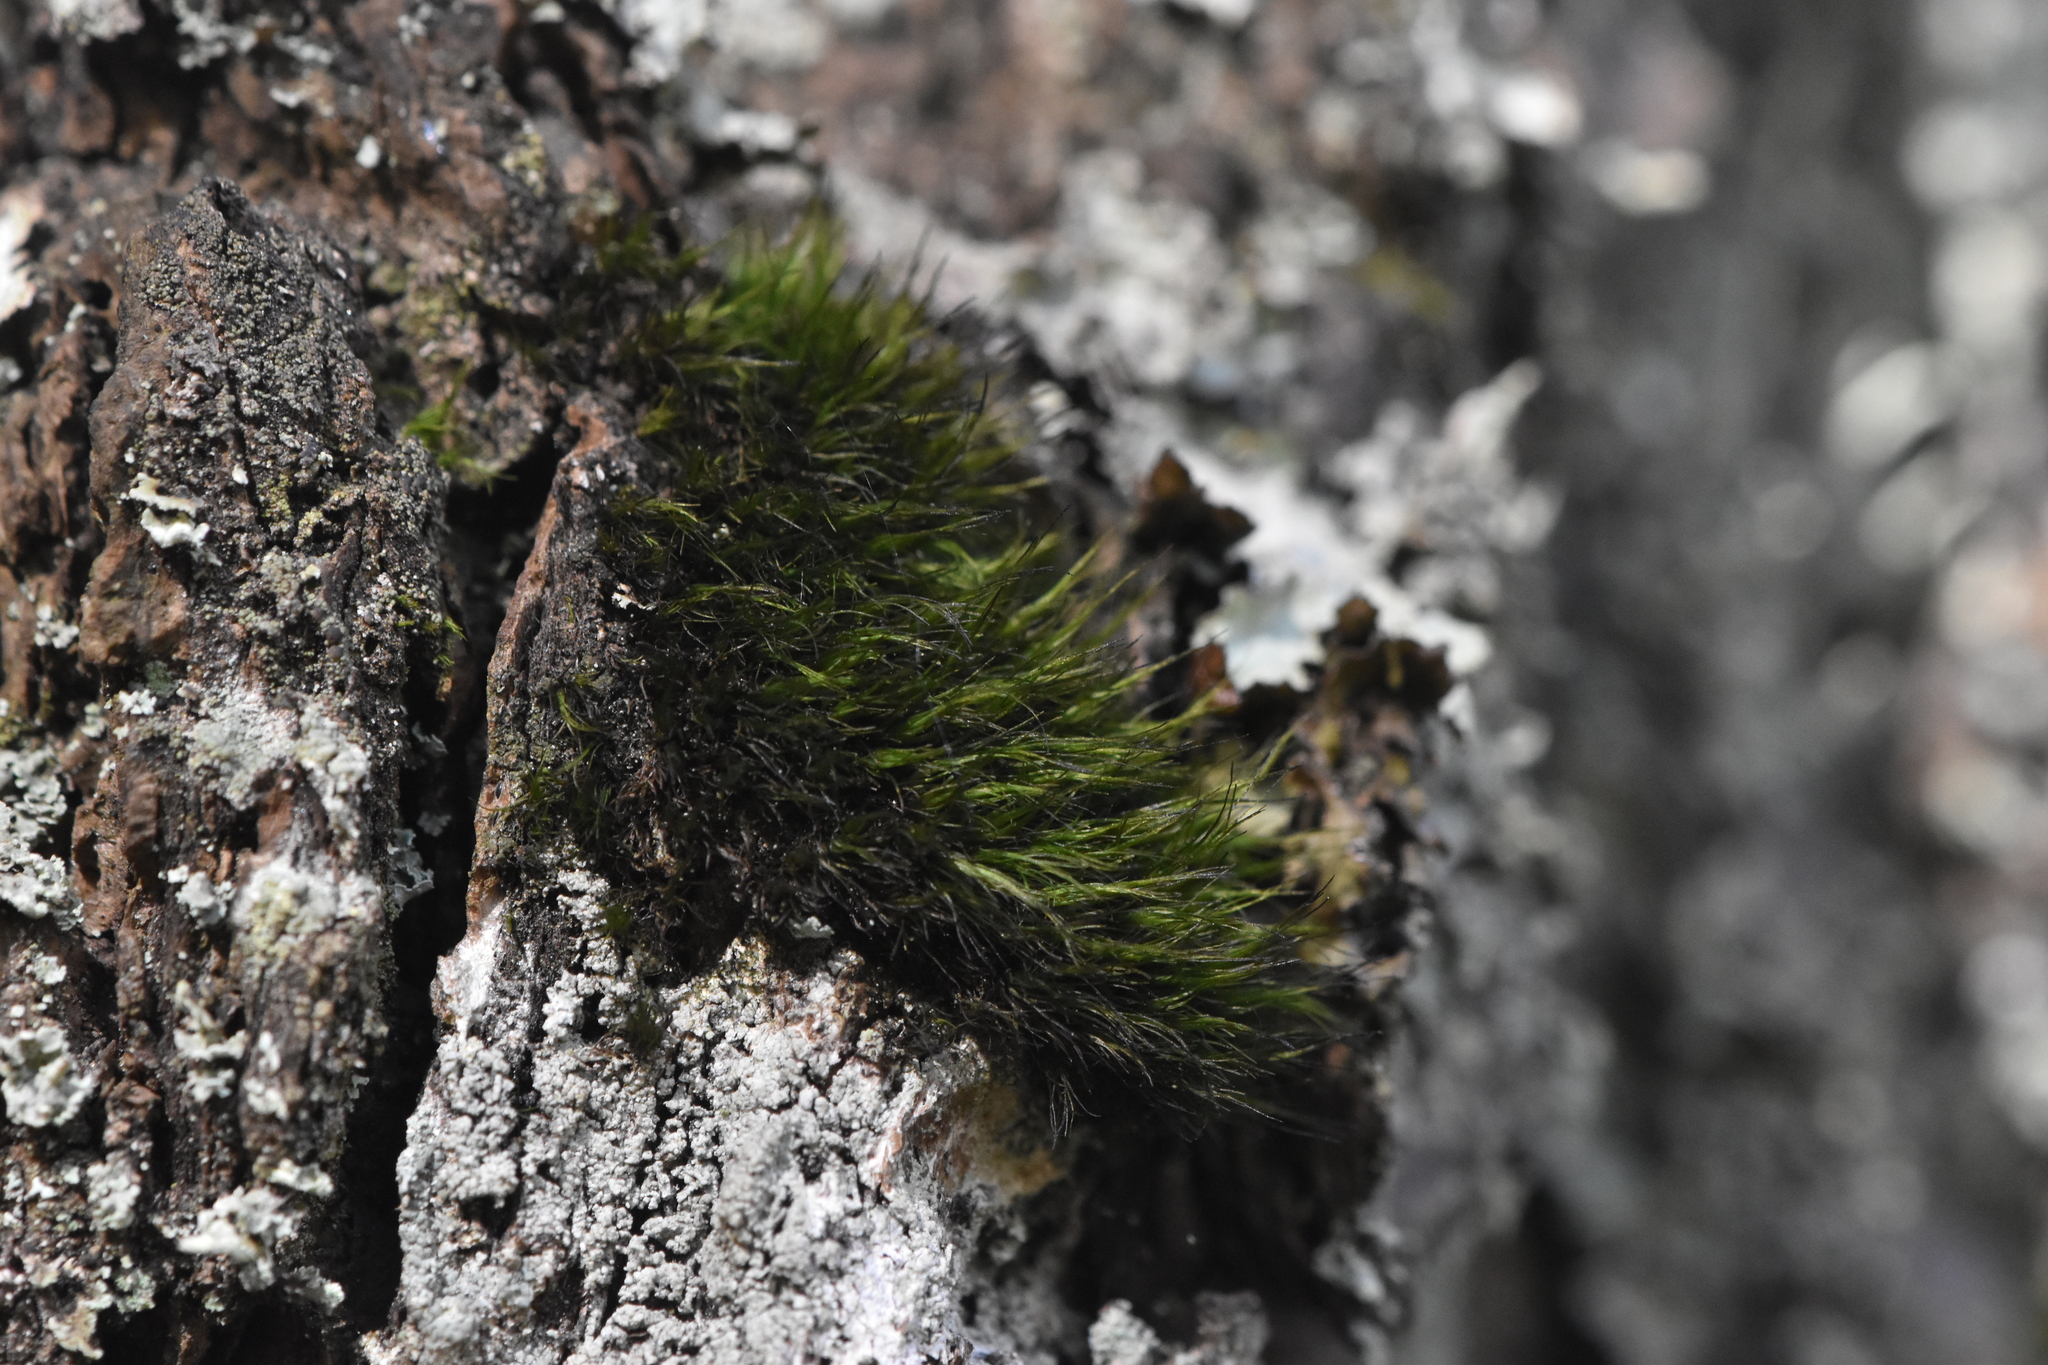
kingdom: Plantae
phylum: Bryophyta
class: Bryopsida
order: Dicranales
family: Dicranaceae
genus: Orthodicranum
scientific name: Orthodicranum tauricum
